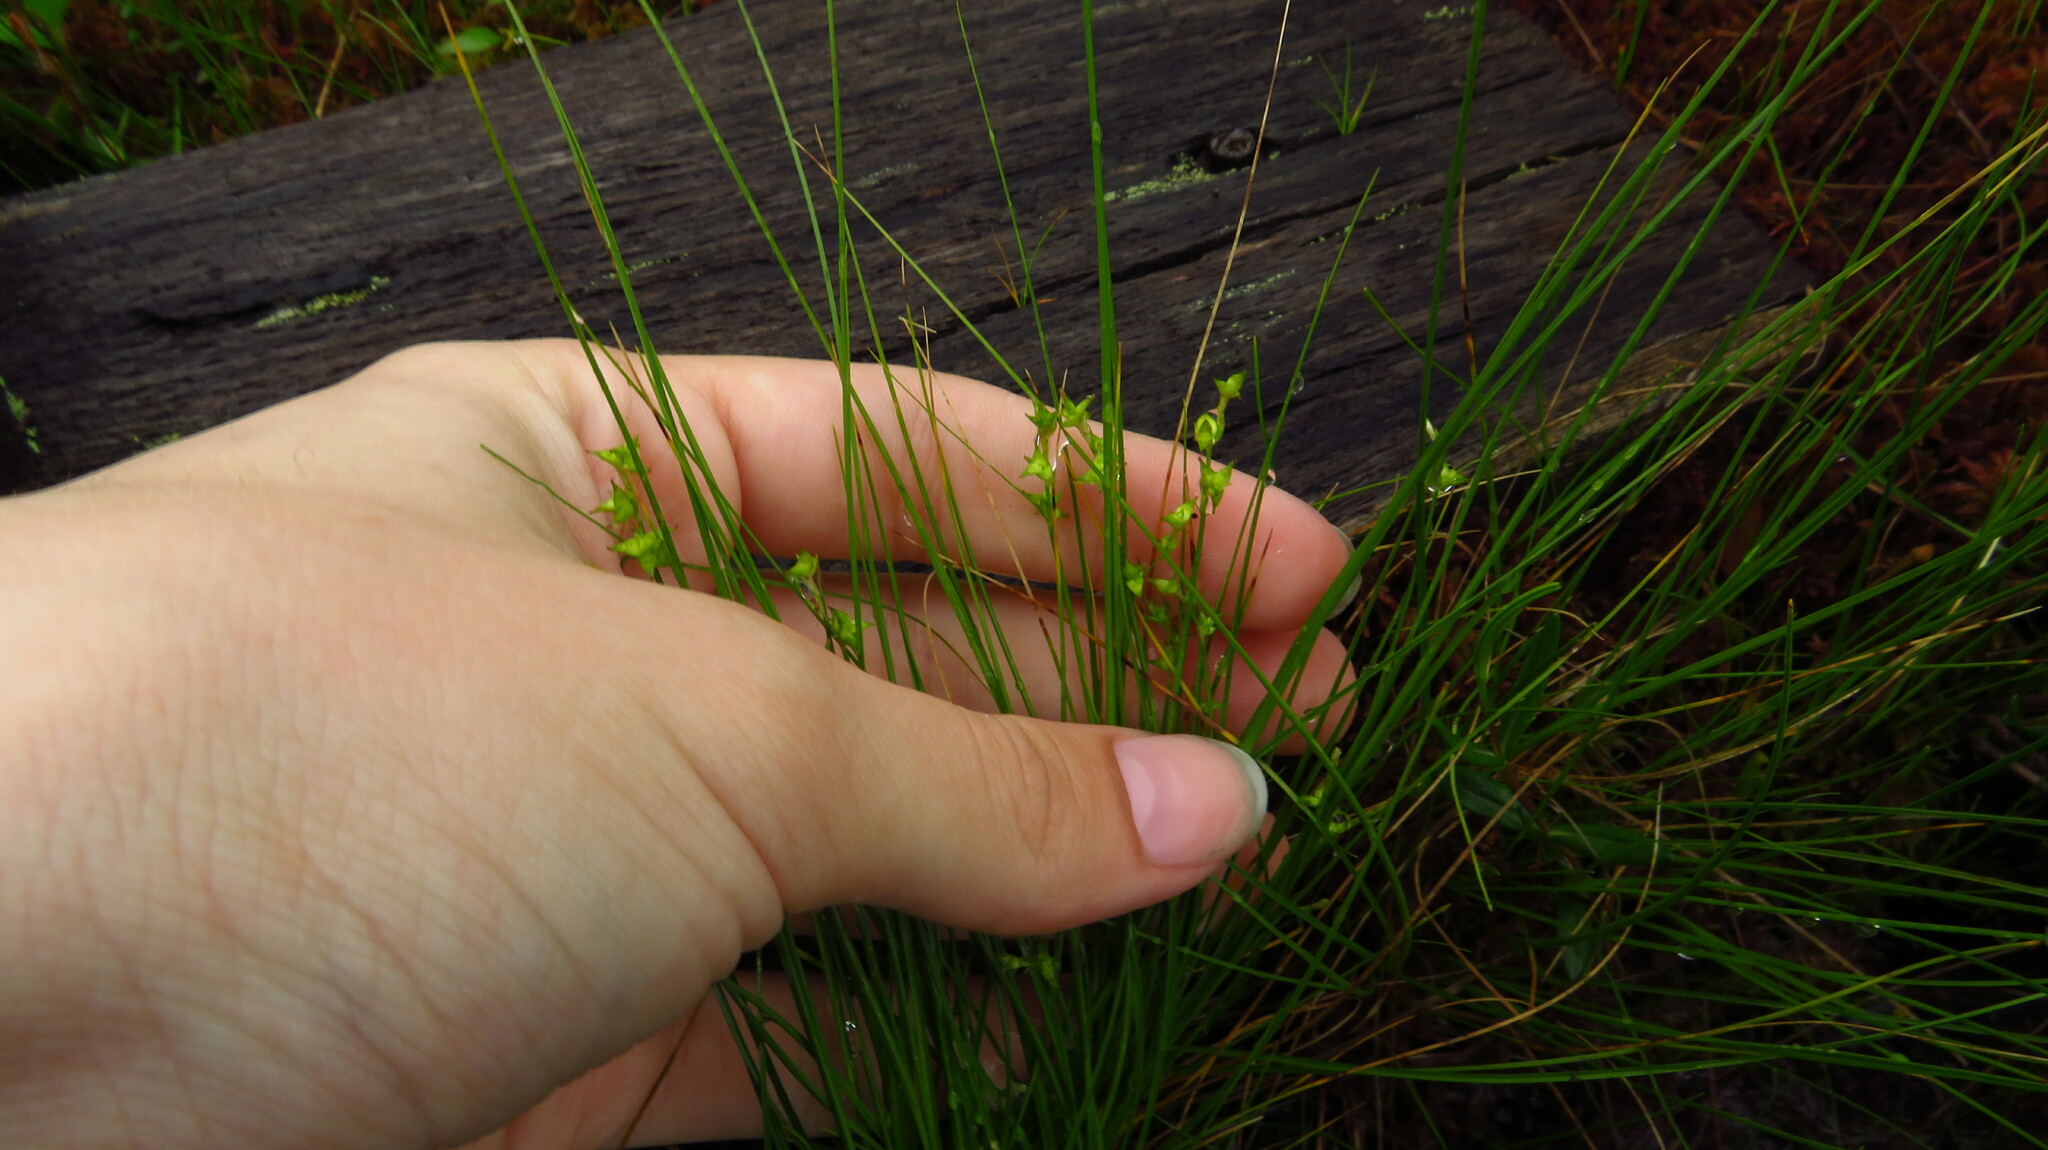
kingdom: Plantae
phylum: Tracheophyta
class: Liliopsida
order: Poales
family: Cyperaceae
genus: Carex
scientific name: Carex atlantica
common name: Atlantic sedge
